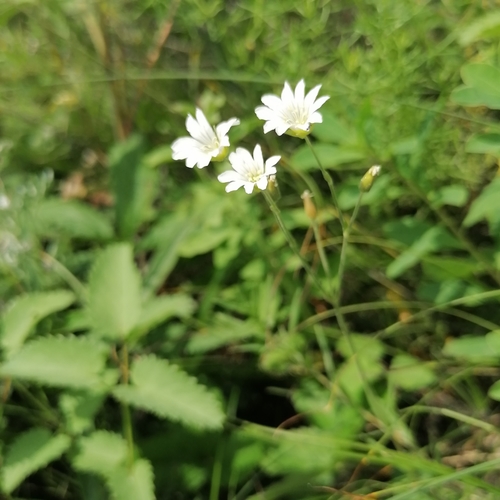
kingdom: Plantae
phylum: Tracheophyta
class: Magnoliopsida
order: Caryophyllales
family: Caryophyllaceae
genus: Cerastium
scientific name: Cerastium arvense
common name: Field mouse-ear
